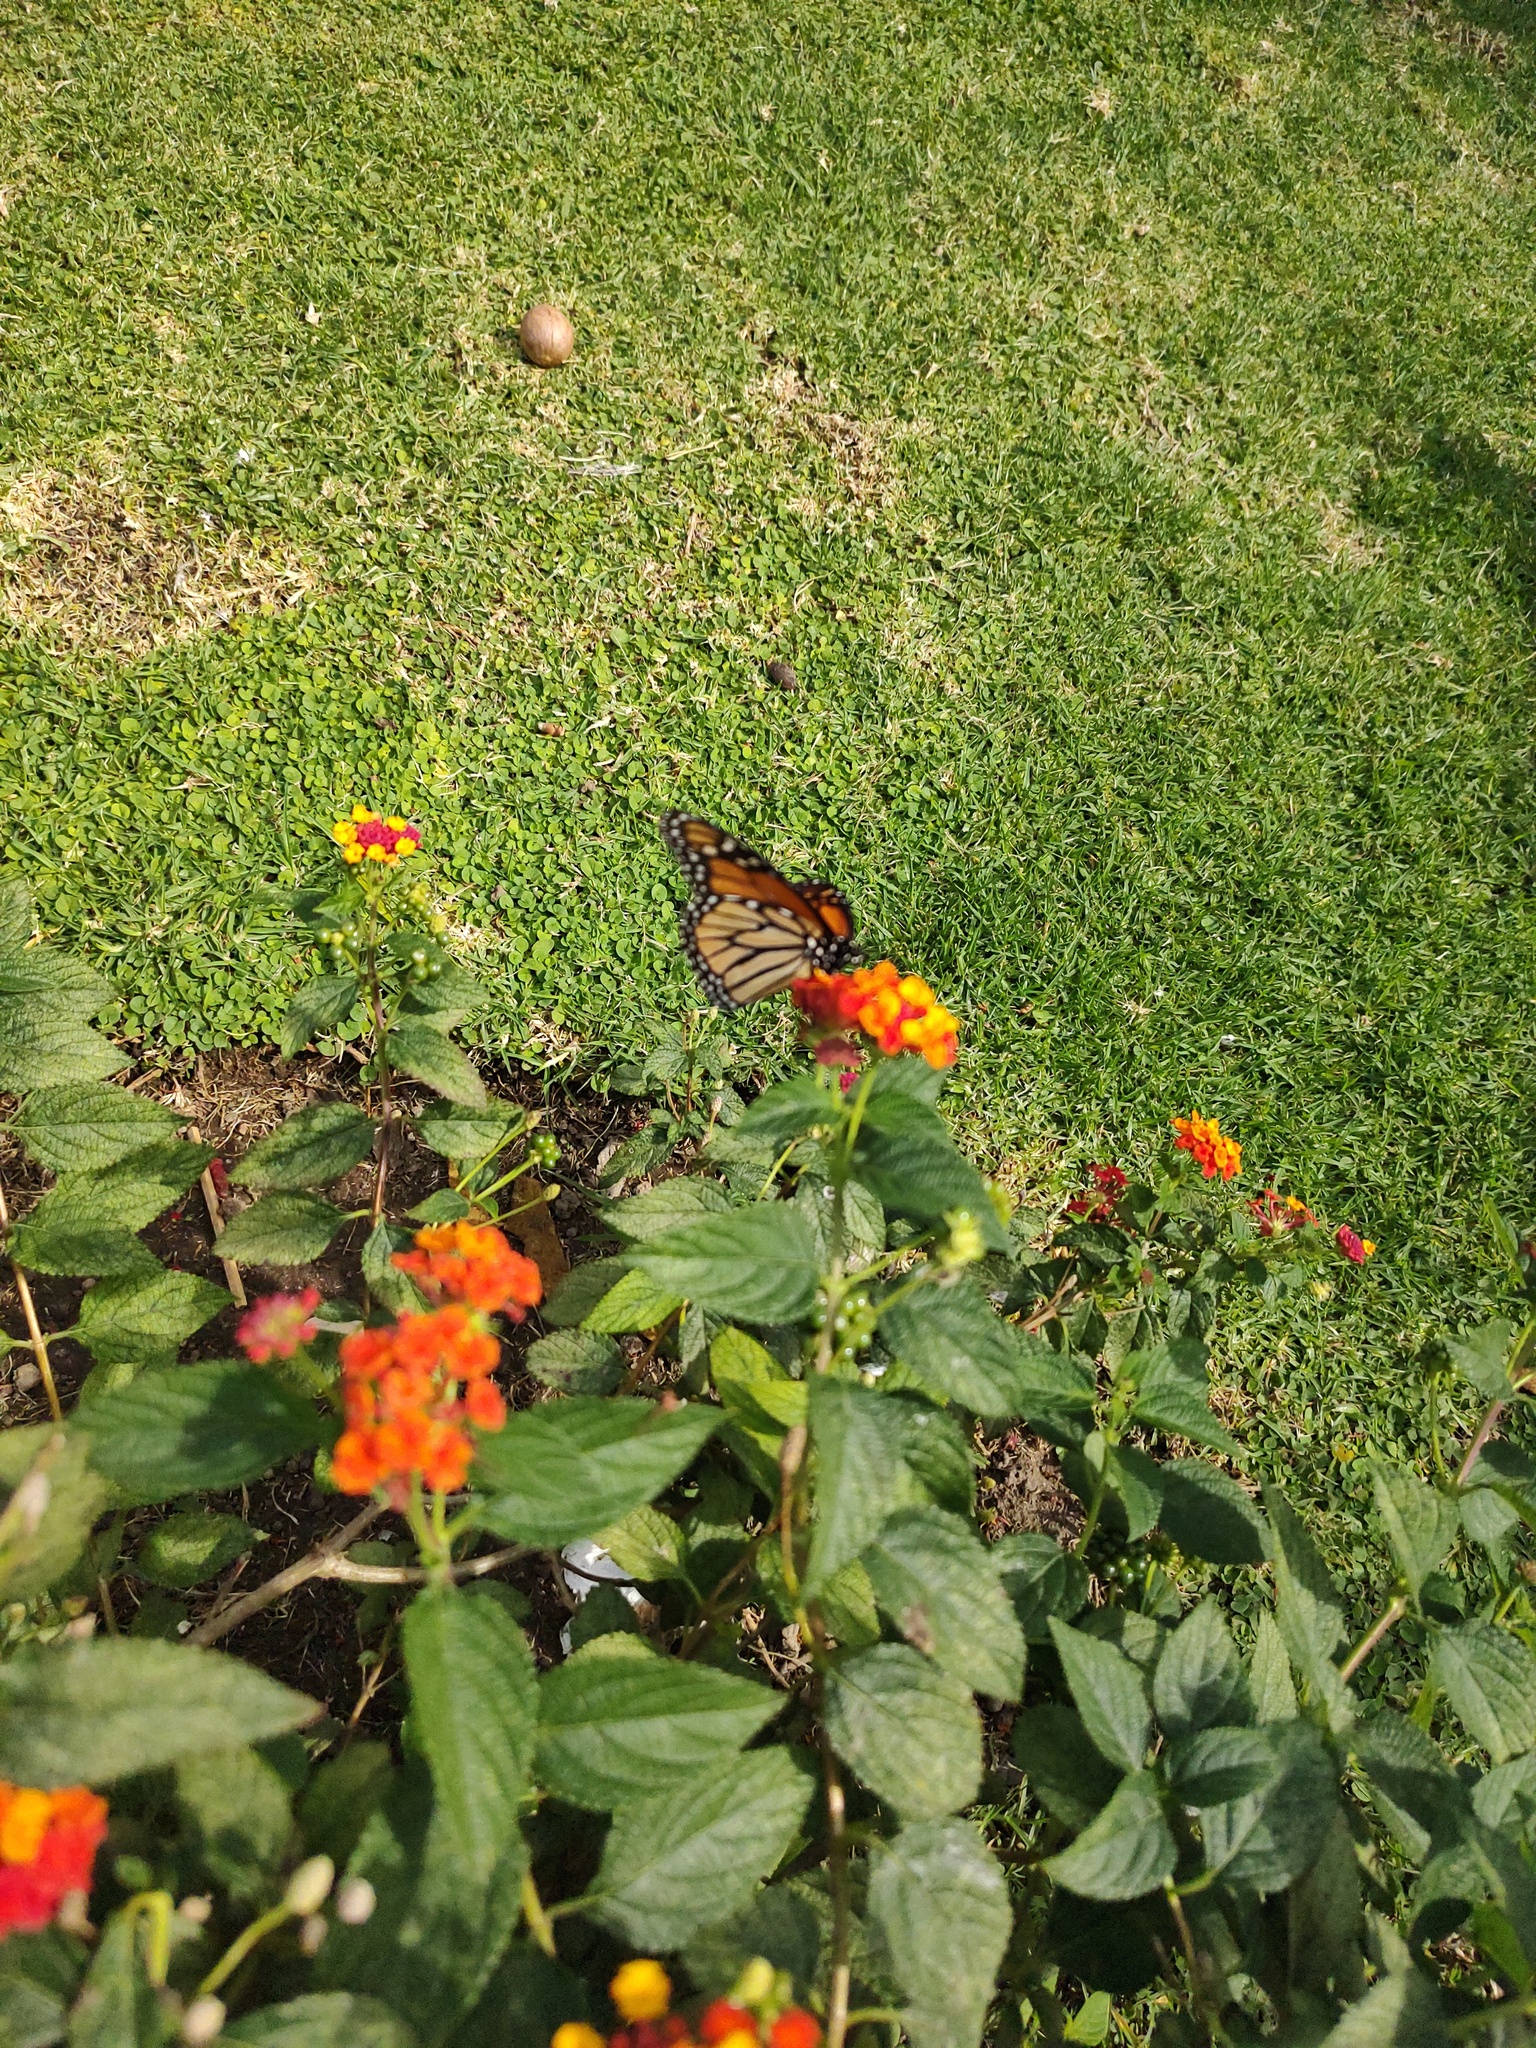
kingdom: Animalia
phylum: Arthropoda
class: Insecta
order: Lepidoptera
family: Nymphalidae
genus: Danaus
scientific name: Danaus plexippus
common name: Monarch
